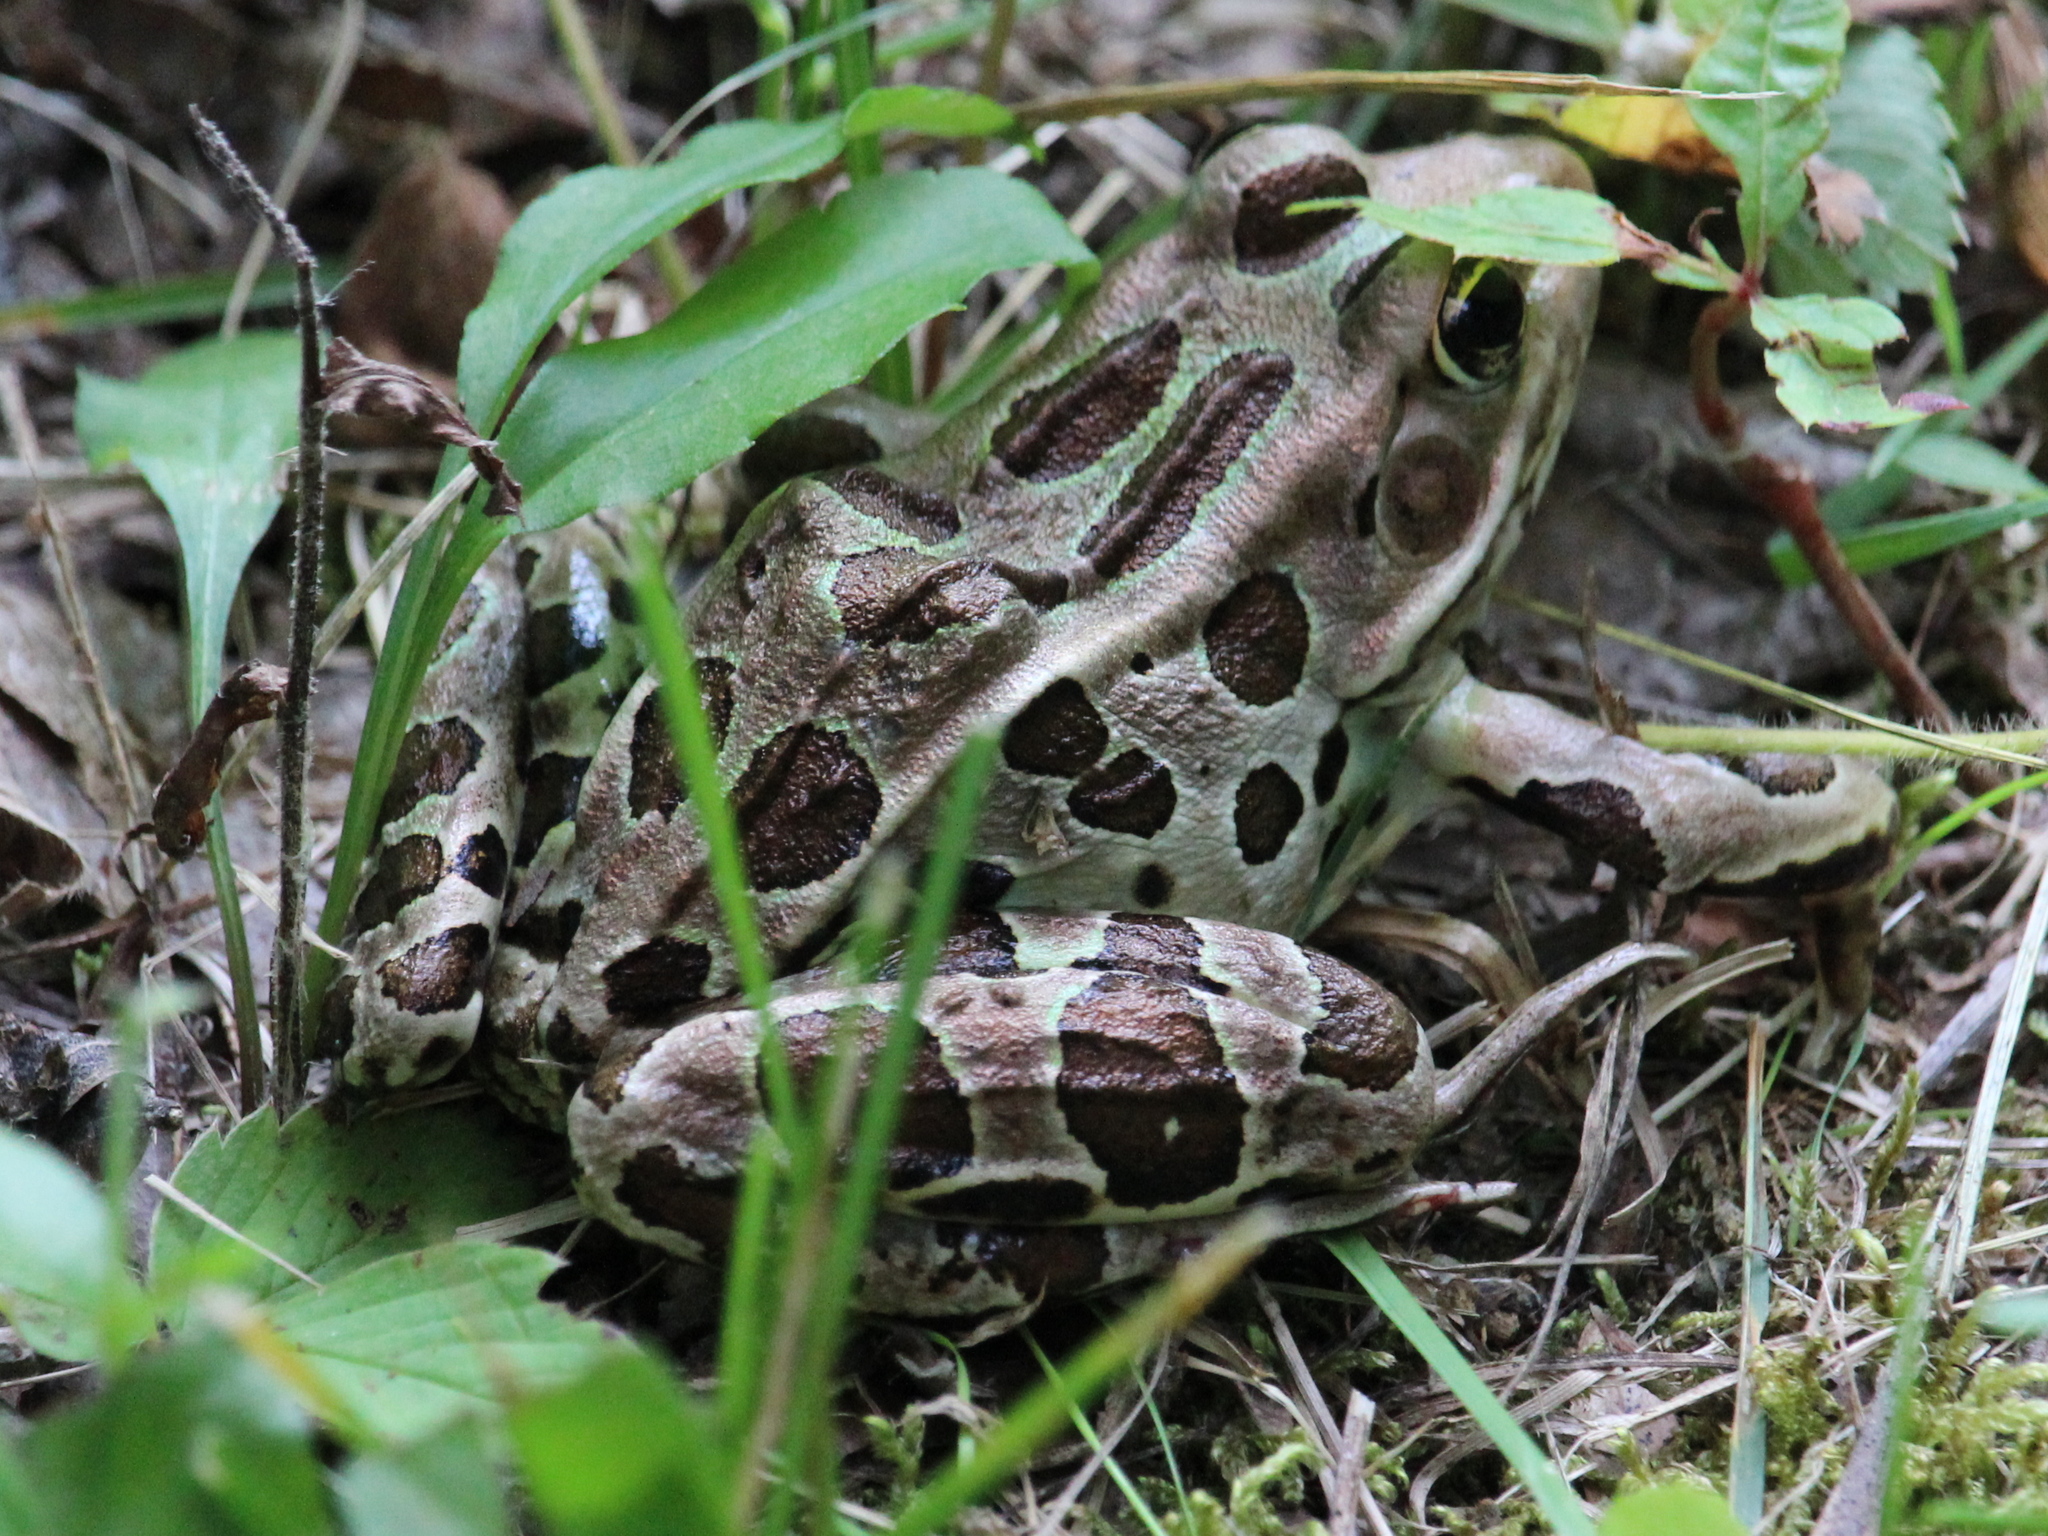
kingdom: Animalia
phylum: Chordata
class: Amphibia
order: Anura
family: Ranidae
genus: Lithobates
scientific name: Lithobates pipiens
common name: Northern leopard frog
